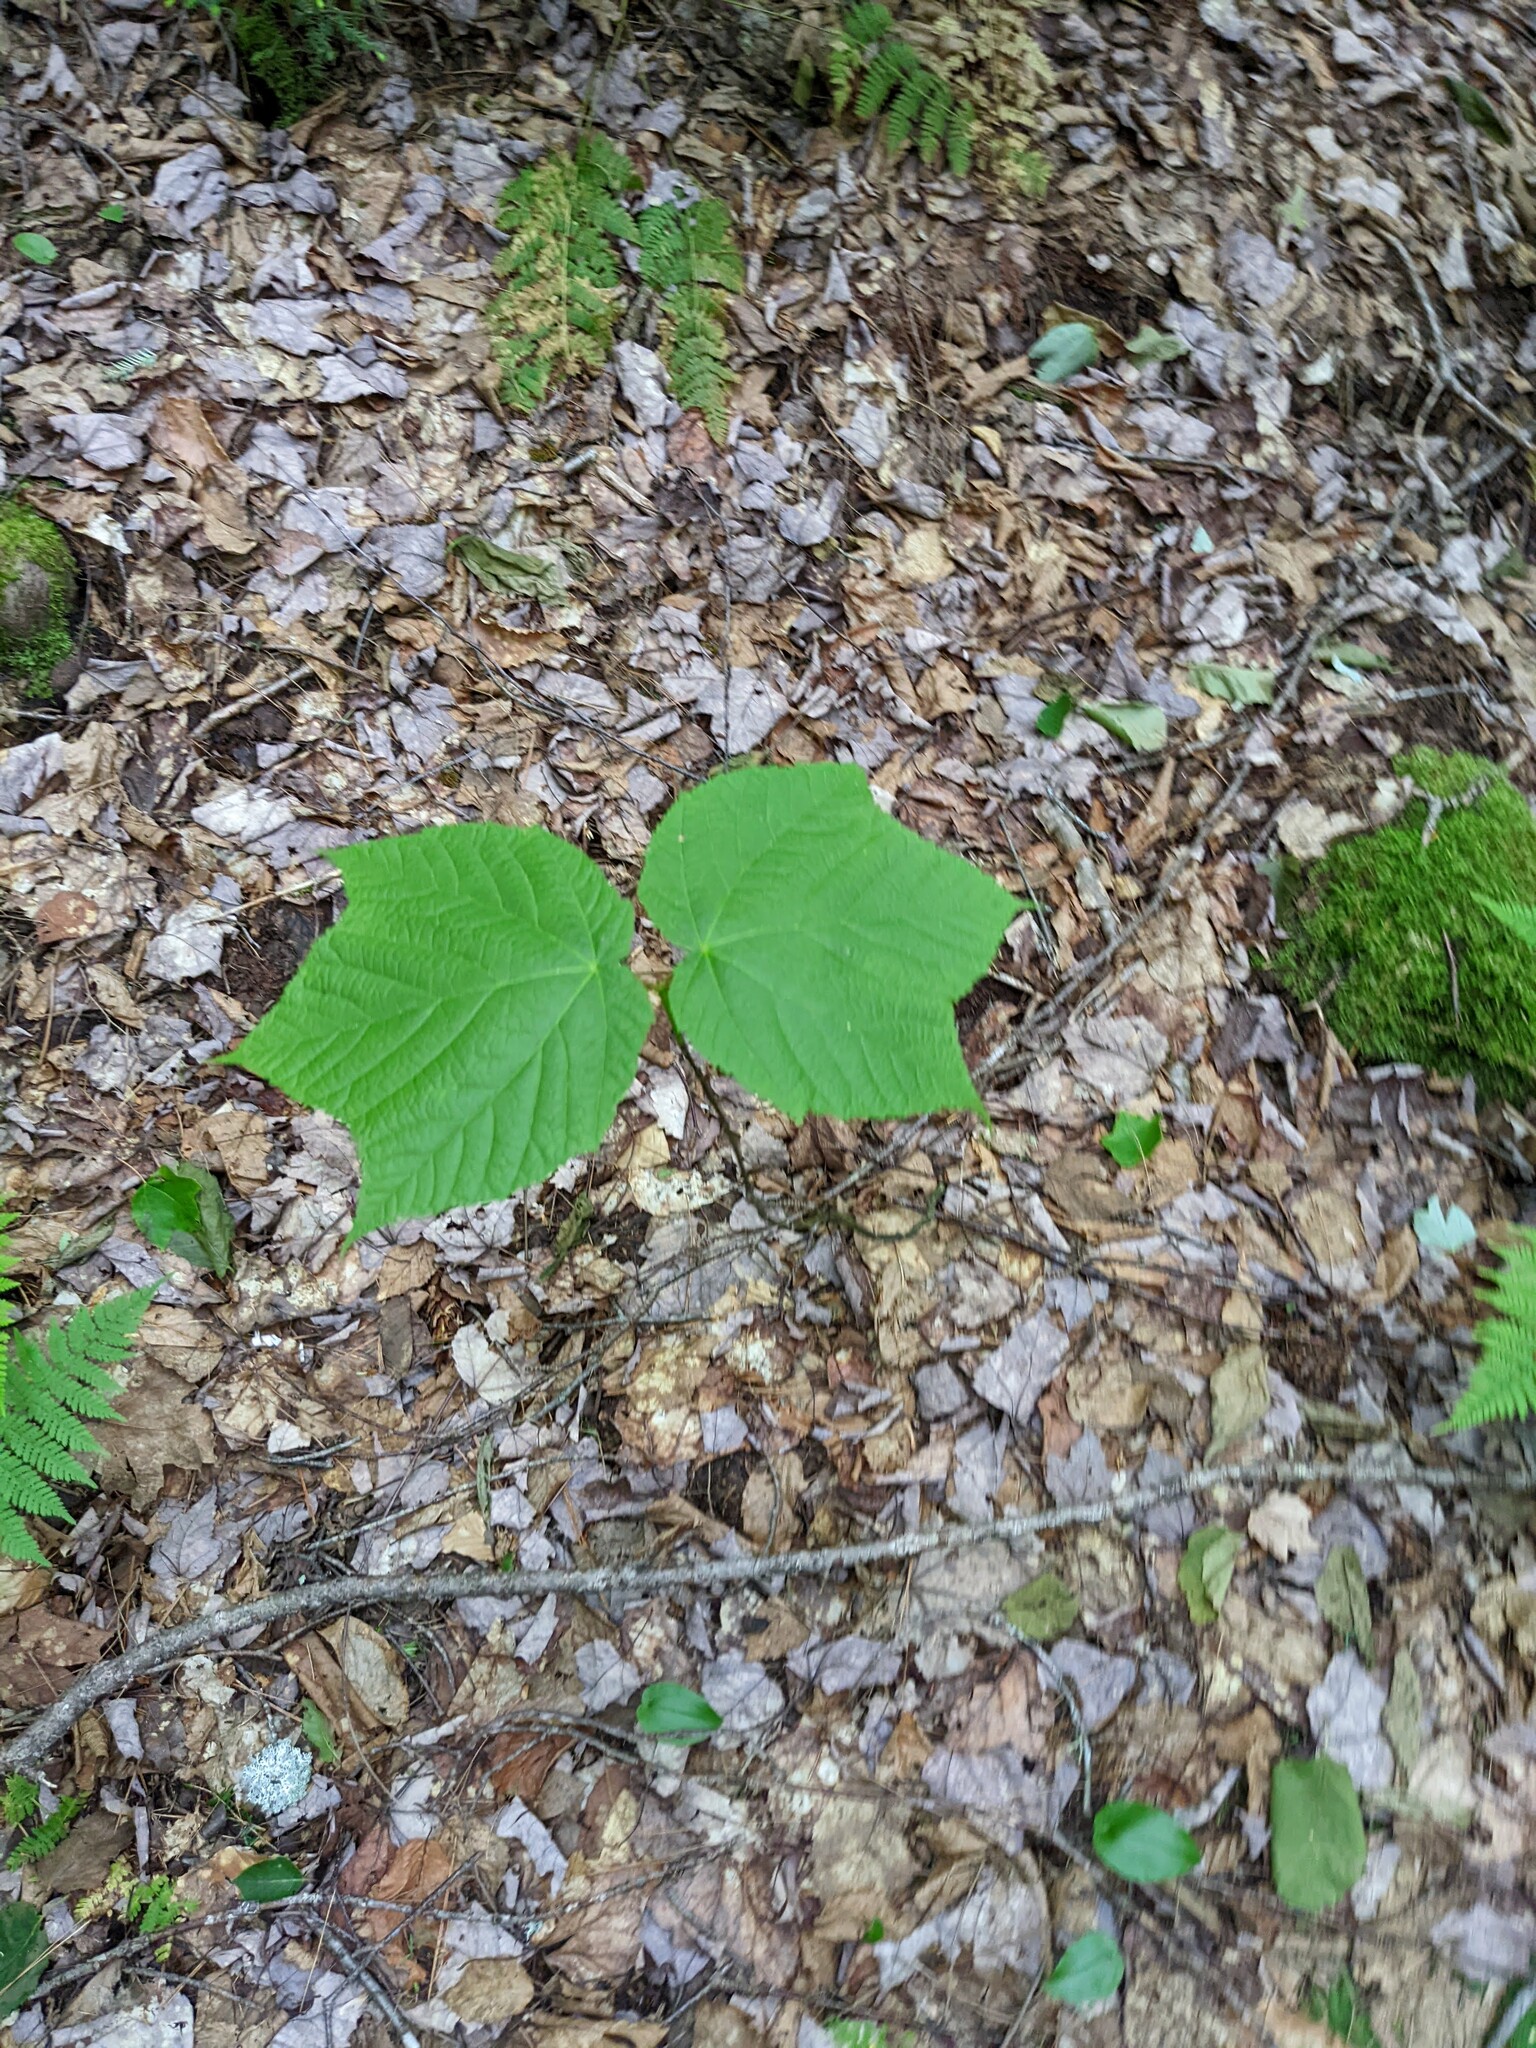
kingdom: Plantae
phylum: Tracheophyta
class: Magnoliopsida
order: Sapindales
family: Sapindaceae
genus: Acer
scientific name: Acer pensylvanicum
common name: Moosewood
